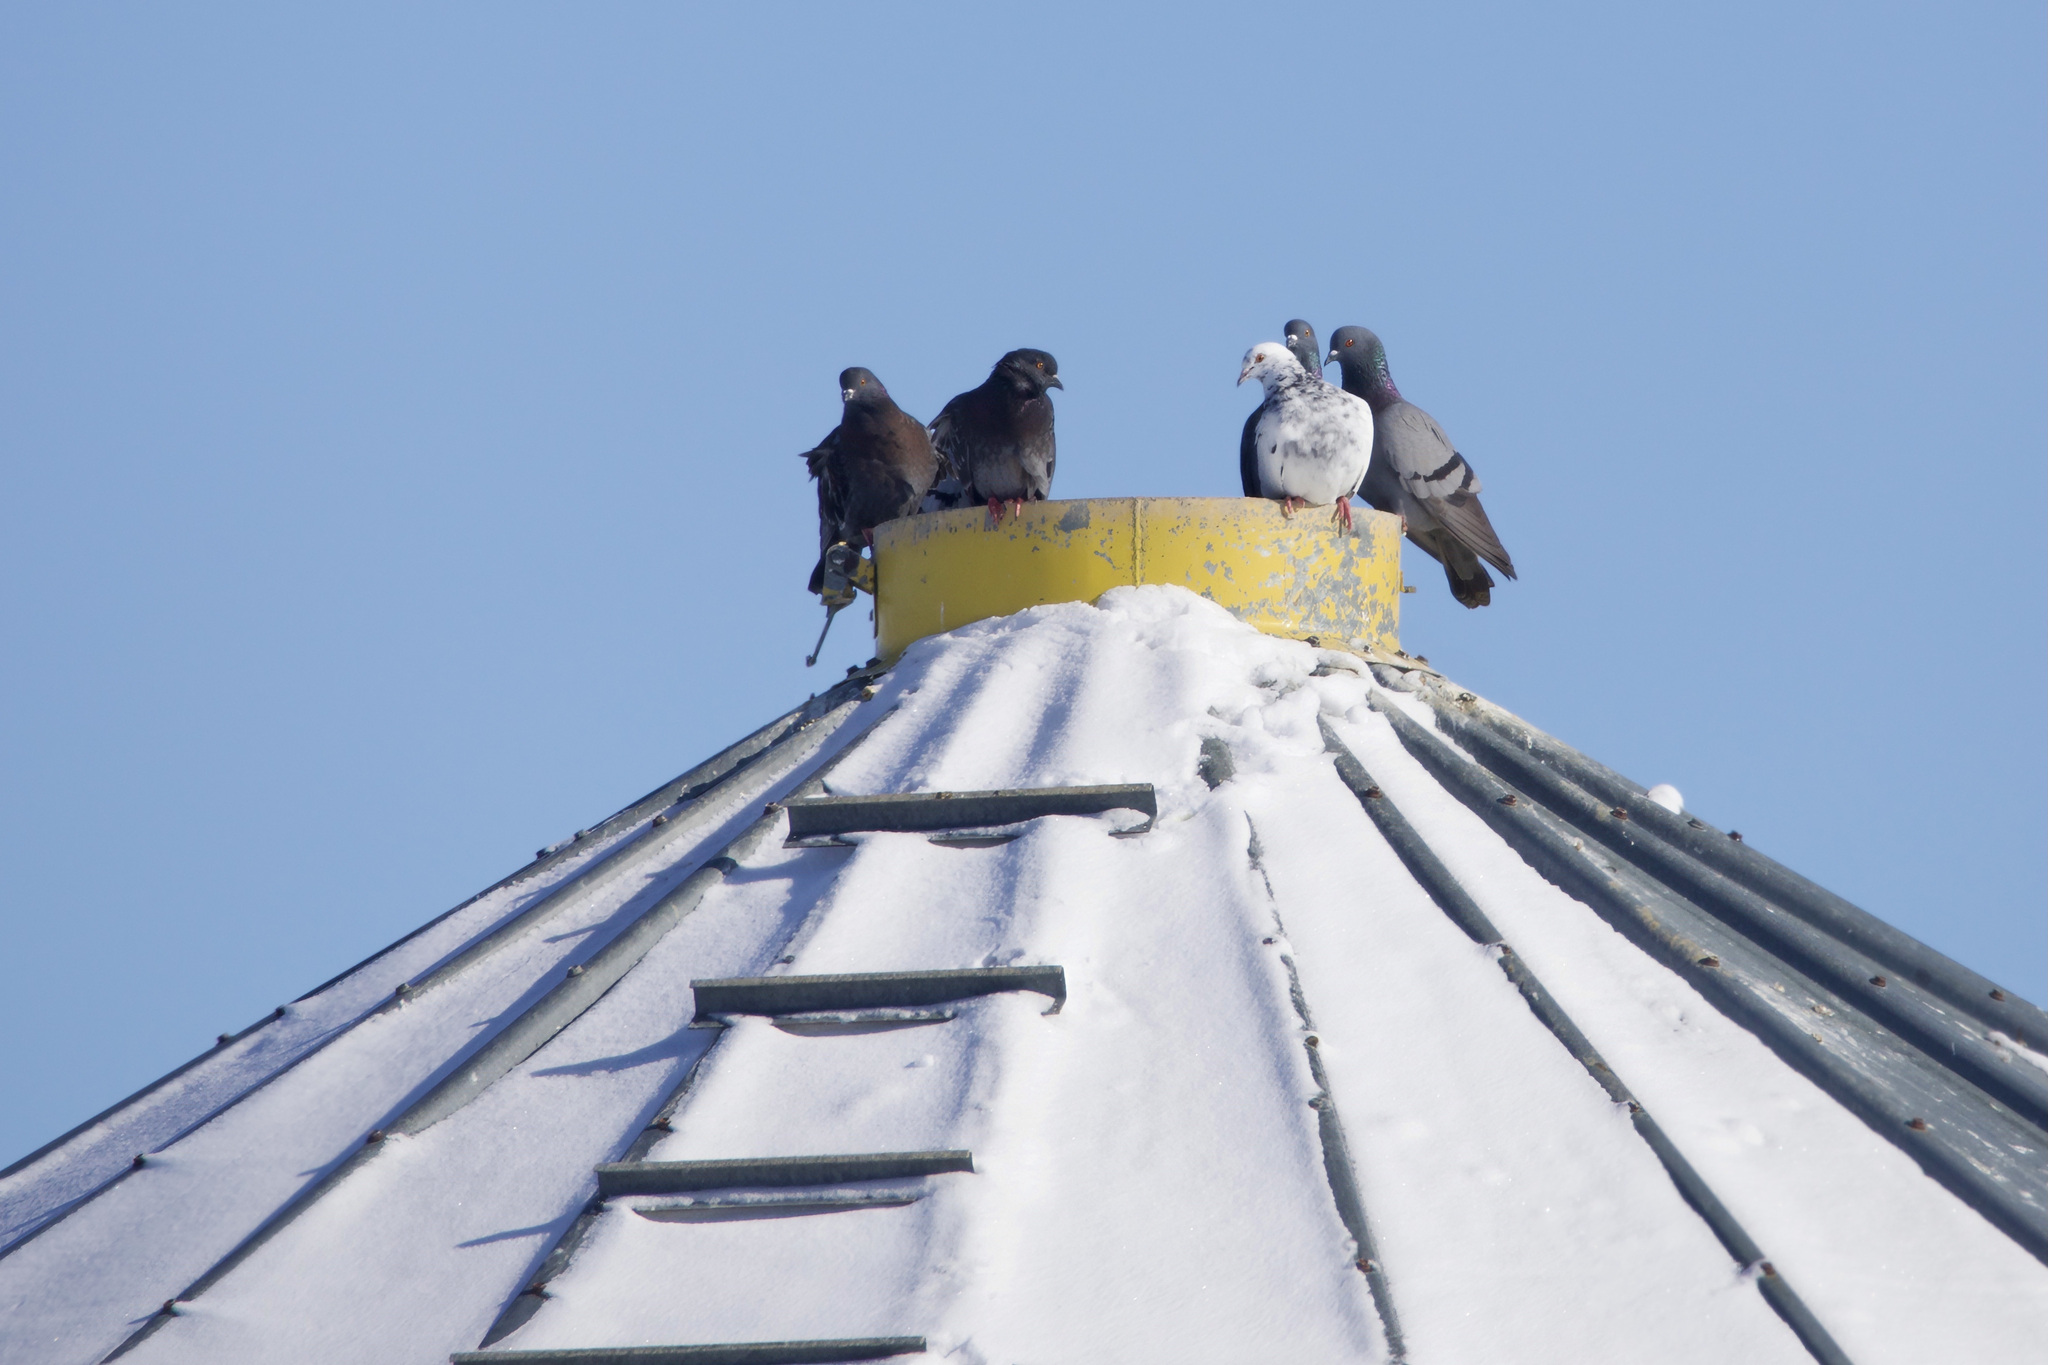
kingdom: Animalia
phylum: Chordata
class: Aves
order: Columbiformes
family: Columbidae
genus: Columba
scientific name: Columba livia
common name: Rock pigeon
